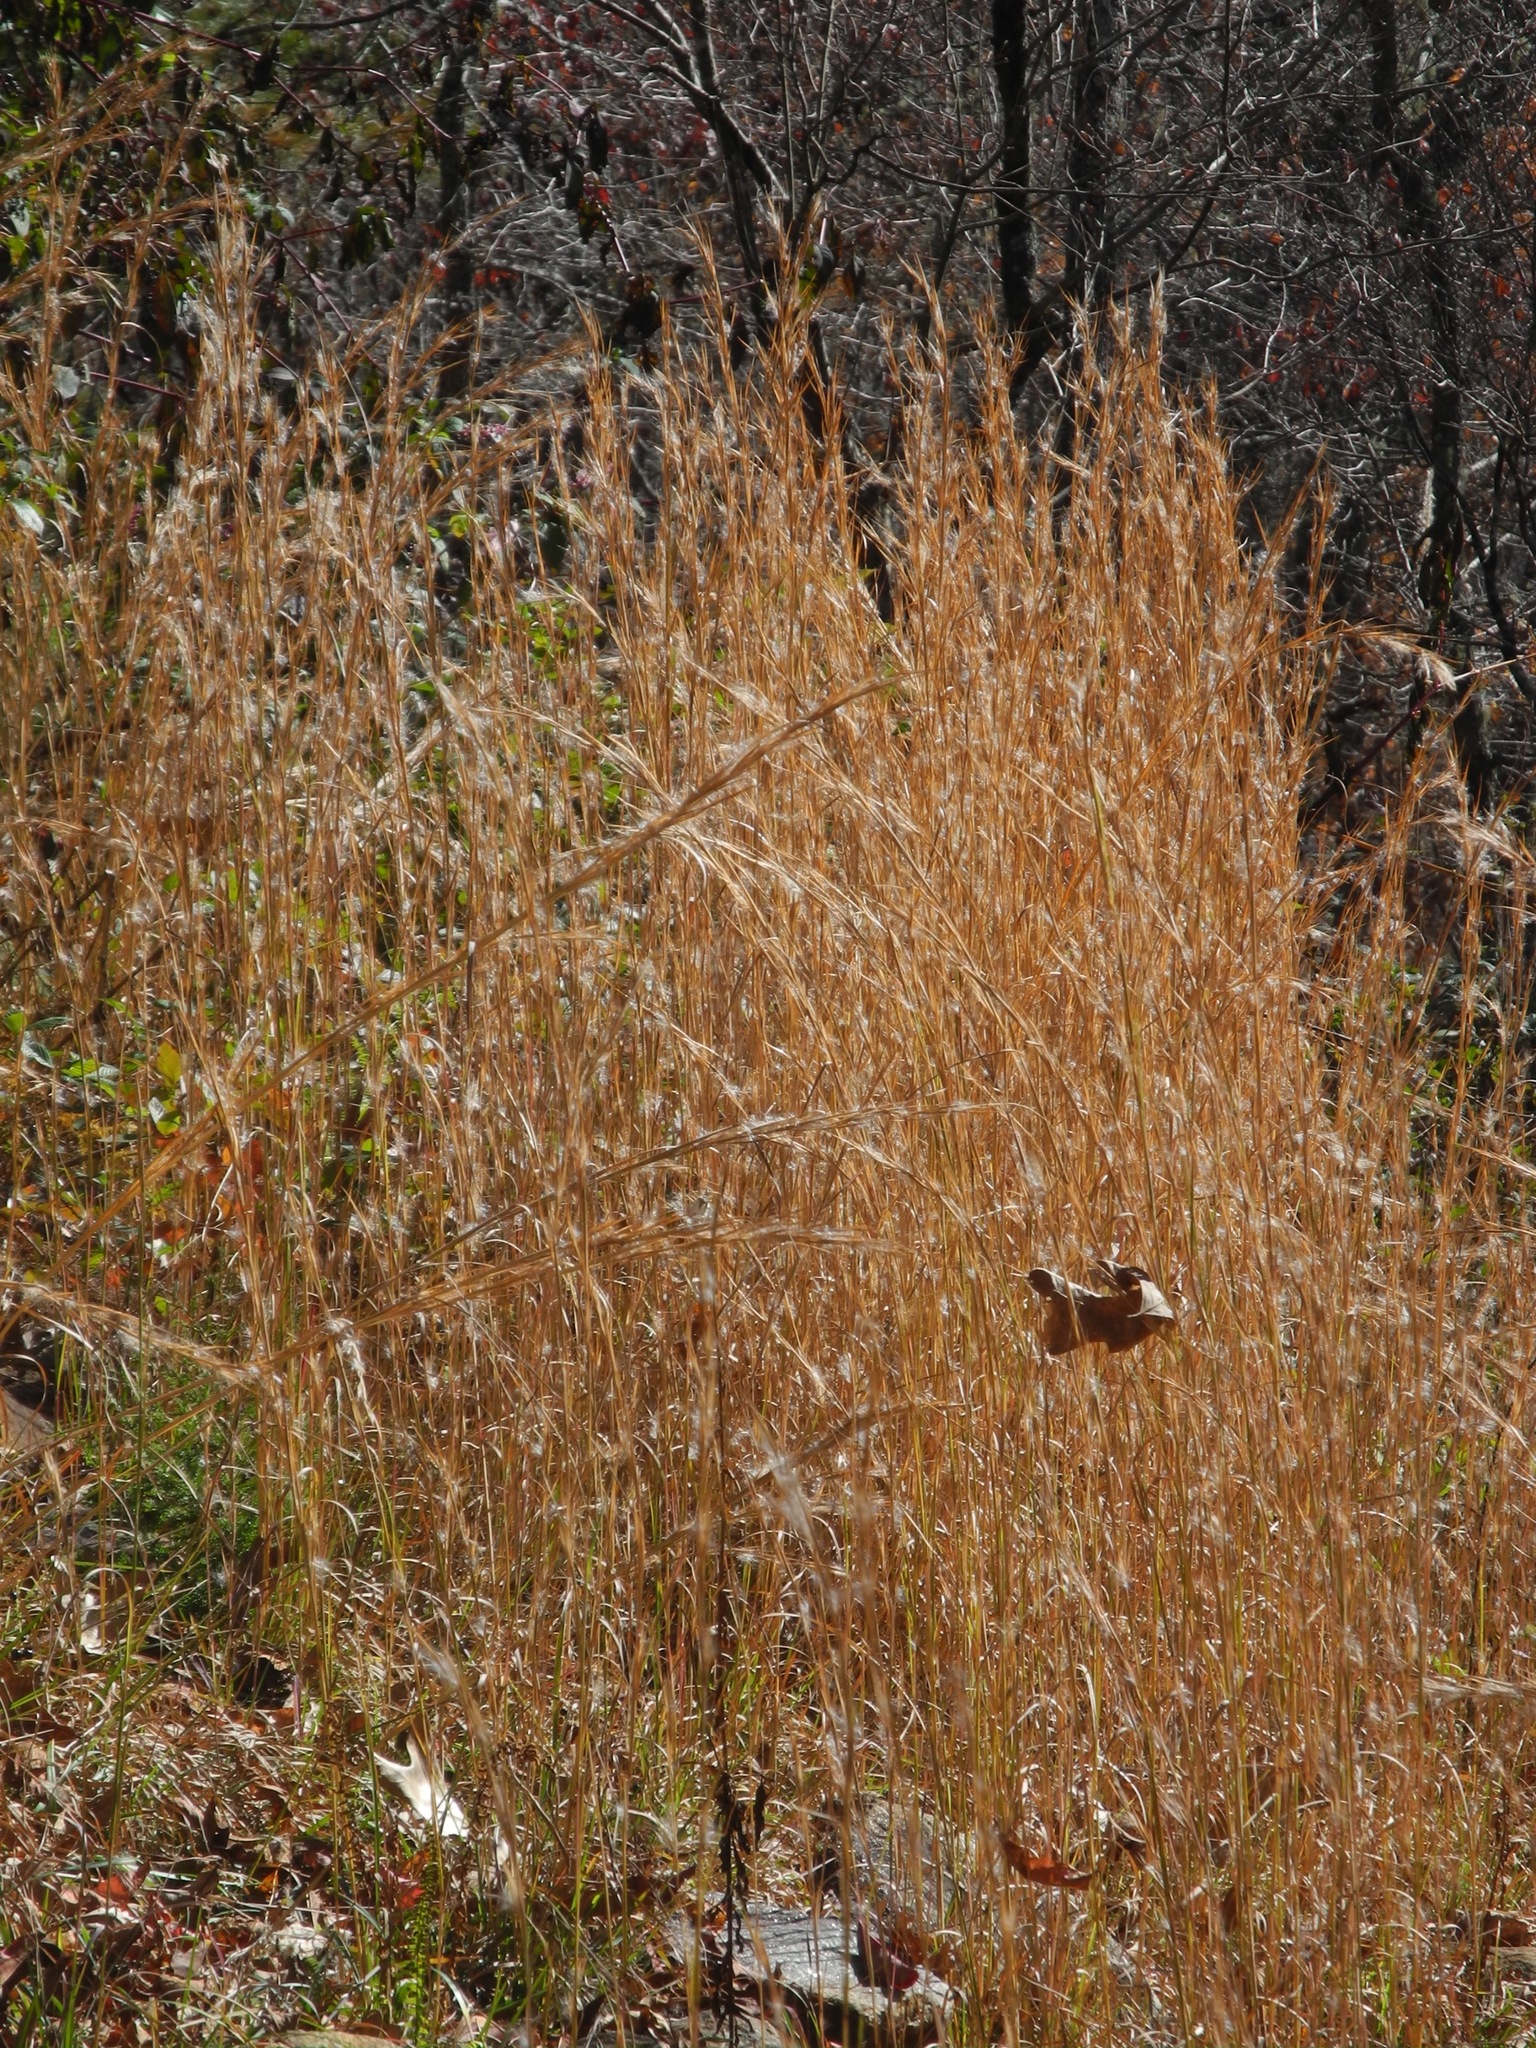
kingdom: Plantae
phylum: Tracheophyta
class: Liliopsida
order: Poales
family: Poaceae
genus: Andropogon
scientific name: Andropogon virginicus
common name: Broomsedge bluestem
